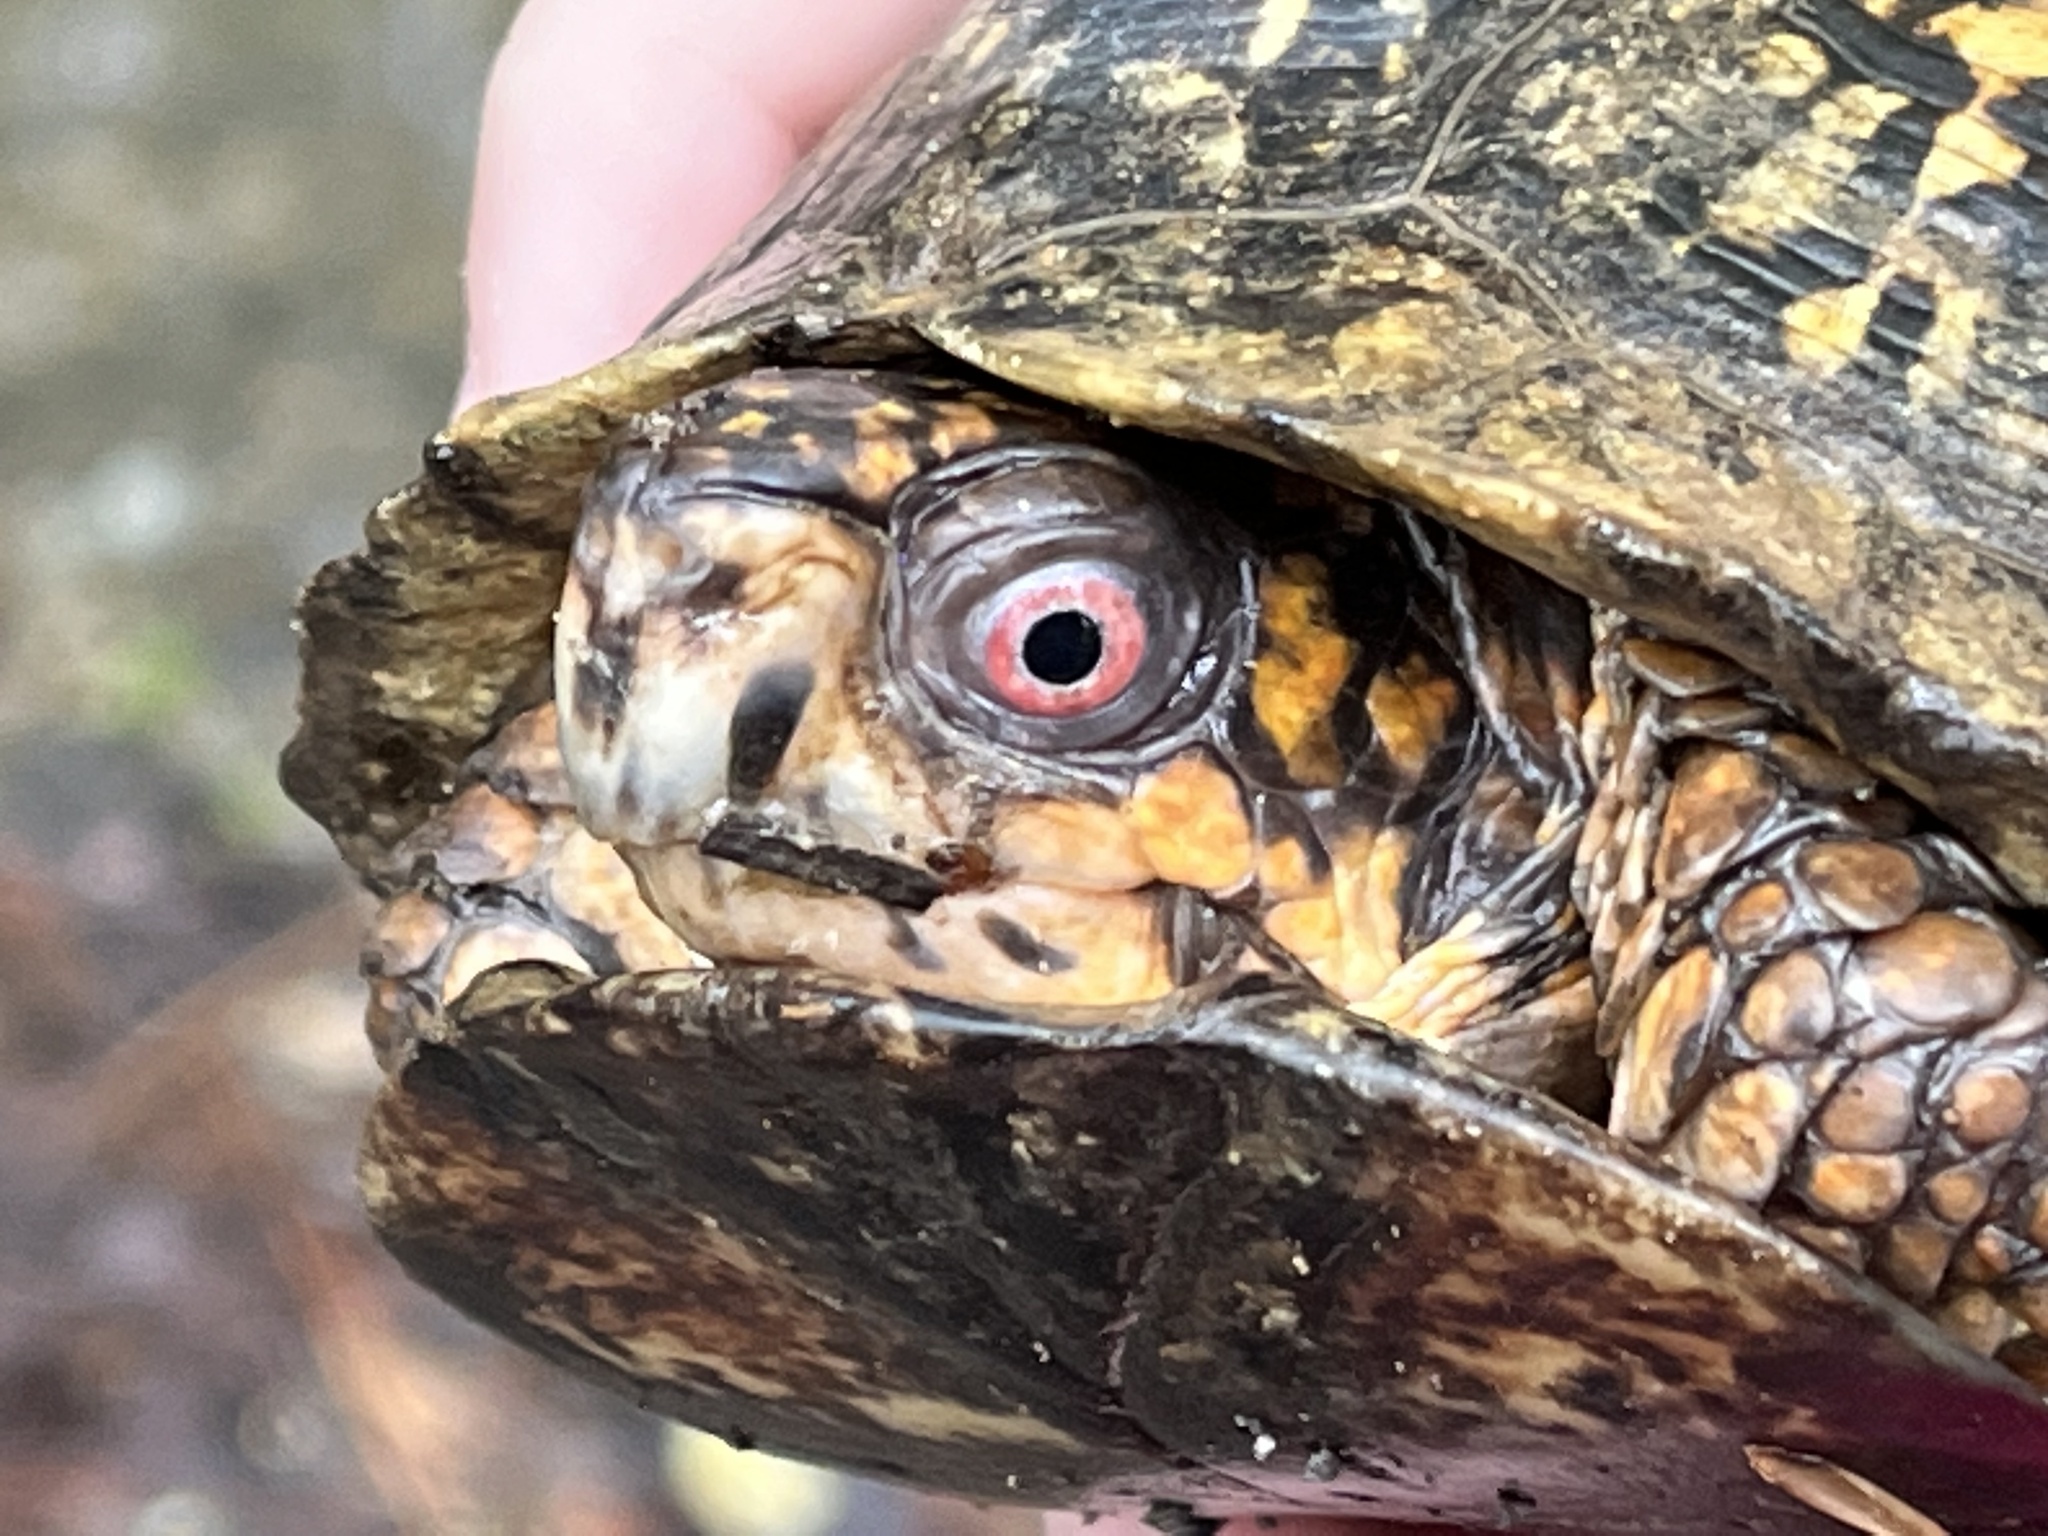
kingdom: Animalia
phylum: Chordata
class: Testudines
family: Emydidae
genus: Terrapene
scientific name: Terrapene carolina
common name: Common box turtle
